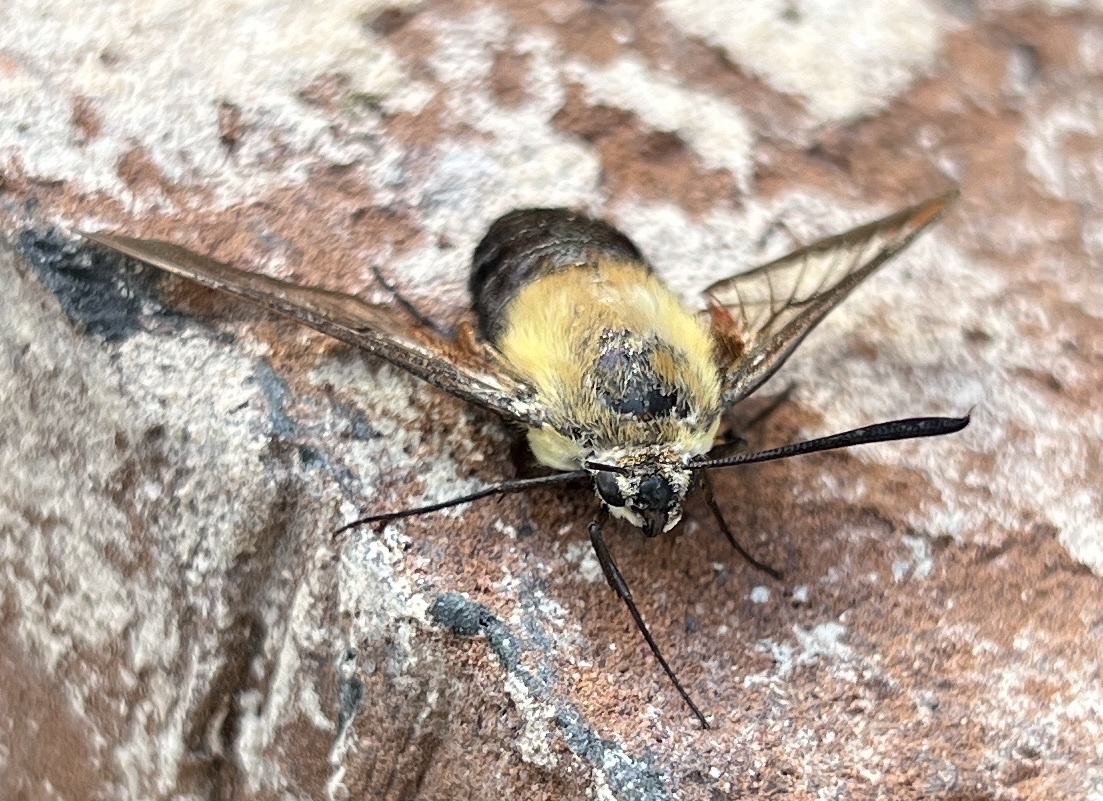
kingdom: Animalia
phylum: Arthropoda
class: Insecta
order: Lepidoptera
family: Sphingidae
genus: Hemaris
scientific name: Hemaris diffinis
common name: Bumblebee moth
